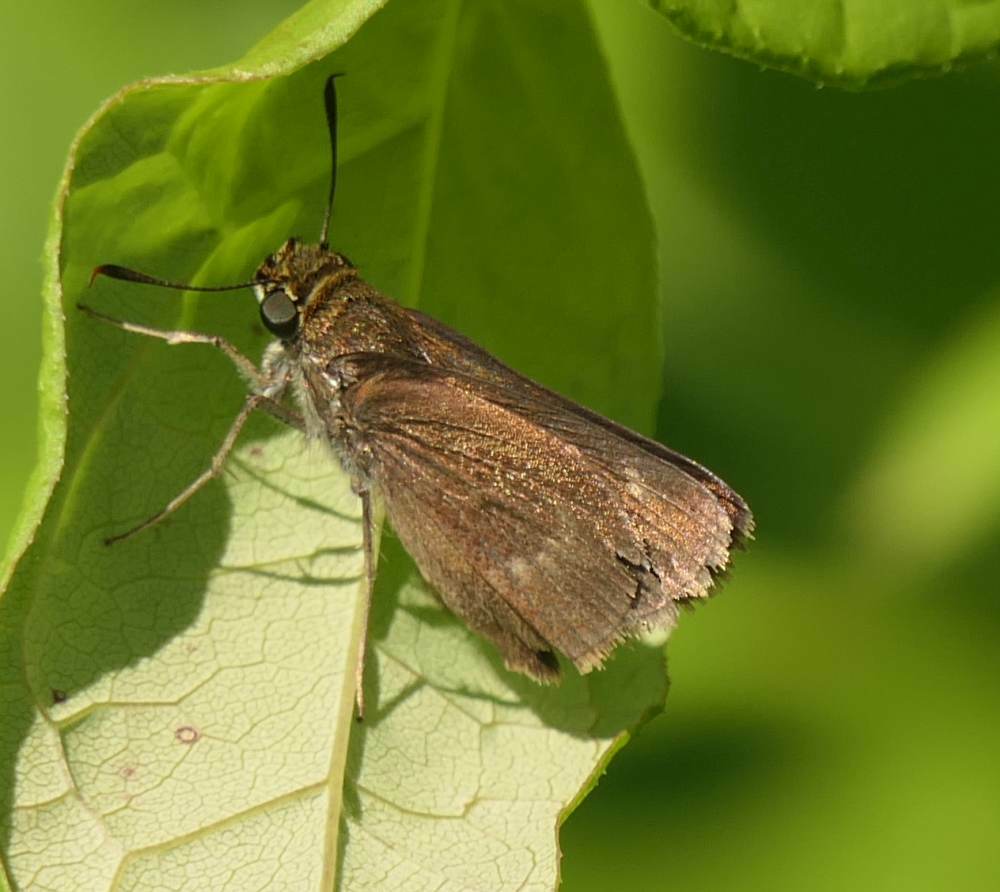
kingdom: Animalia
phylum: Arthropoda
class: Insecta
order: Lepidoptera
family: Hesperiidae
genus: Euphyes
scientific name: Euphyes vestris
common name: Dun skipper
